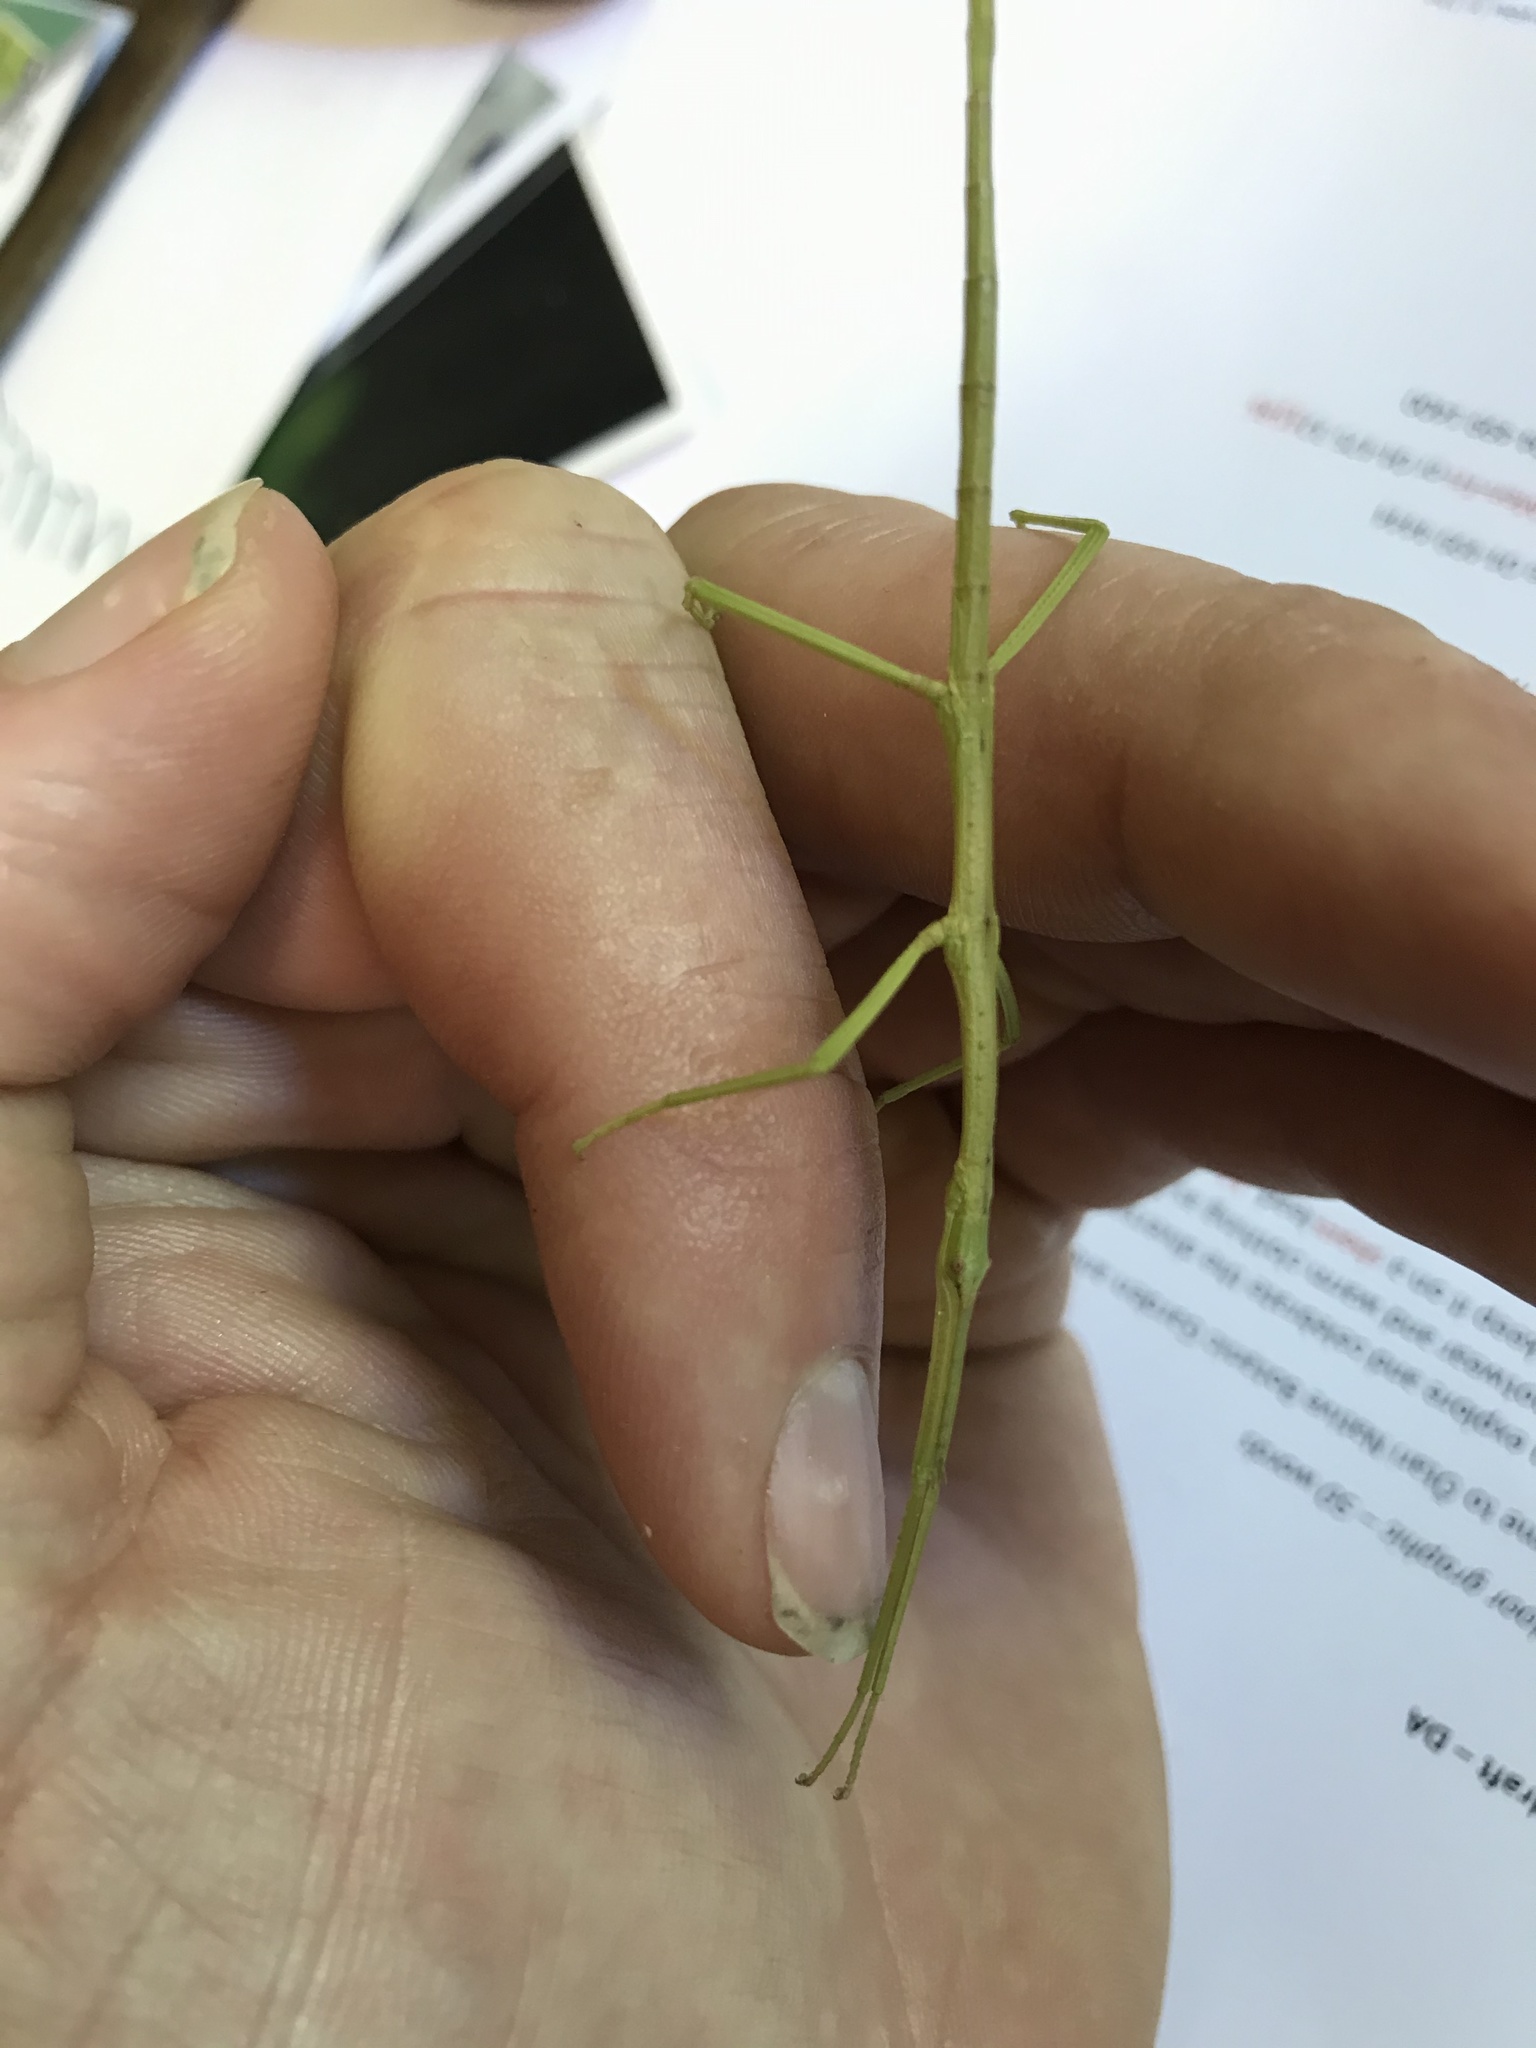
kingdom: Animalia
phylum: Arthropoda
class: Insecta
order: Phasmida
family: Phasmatidae
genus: Clitarchus
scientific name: Clitarchus hookeri
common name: Smooth stick insect
